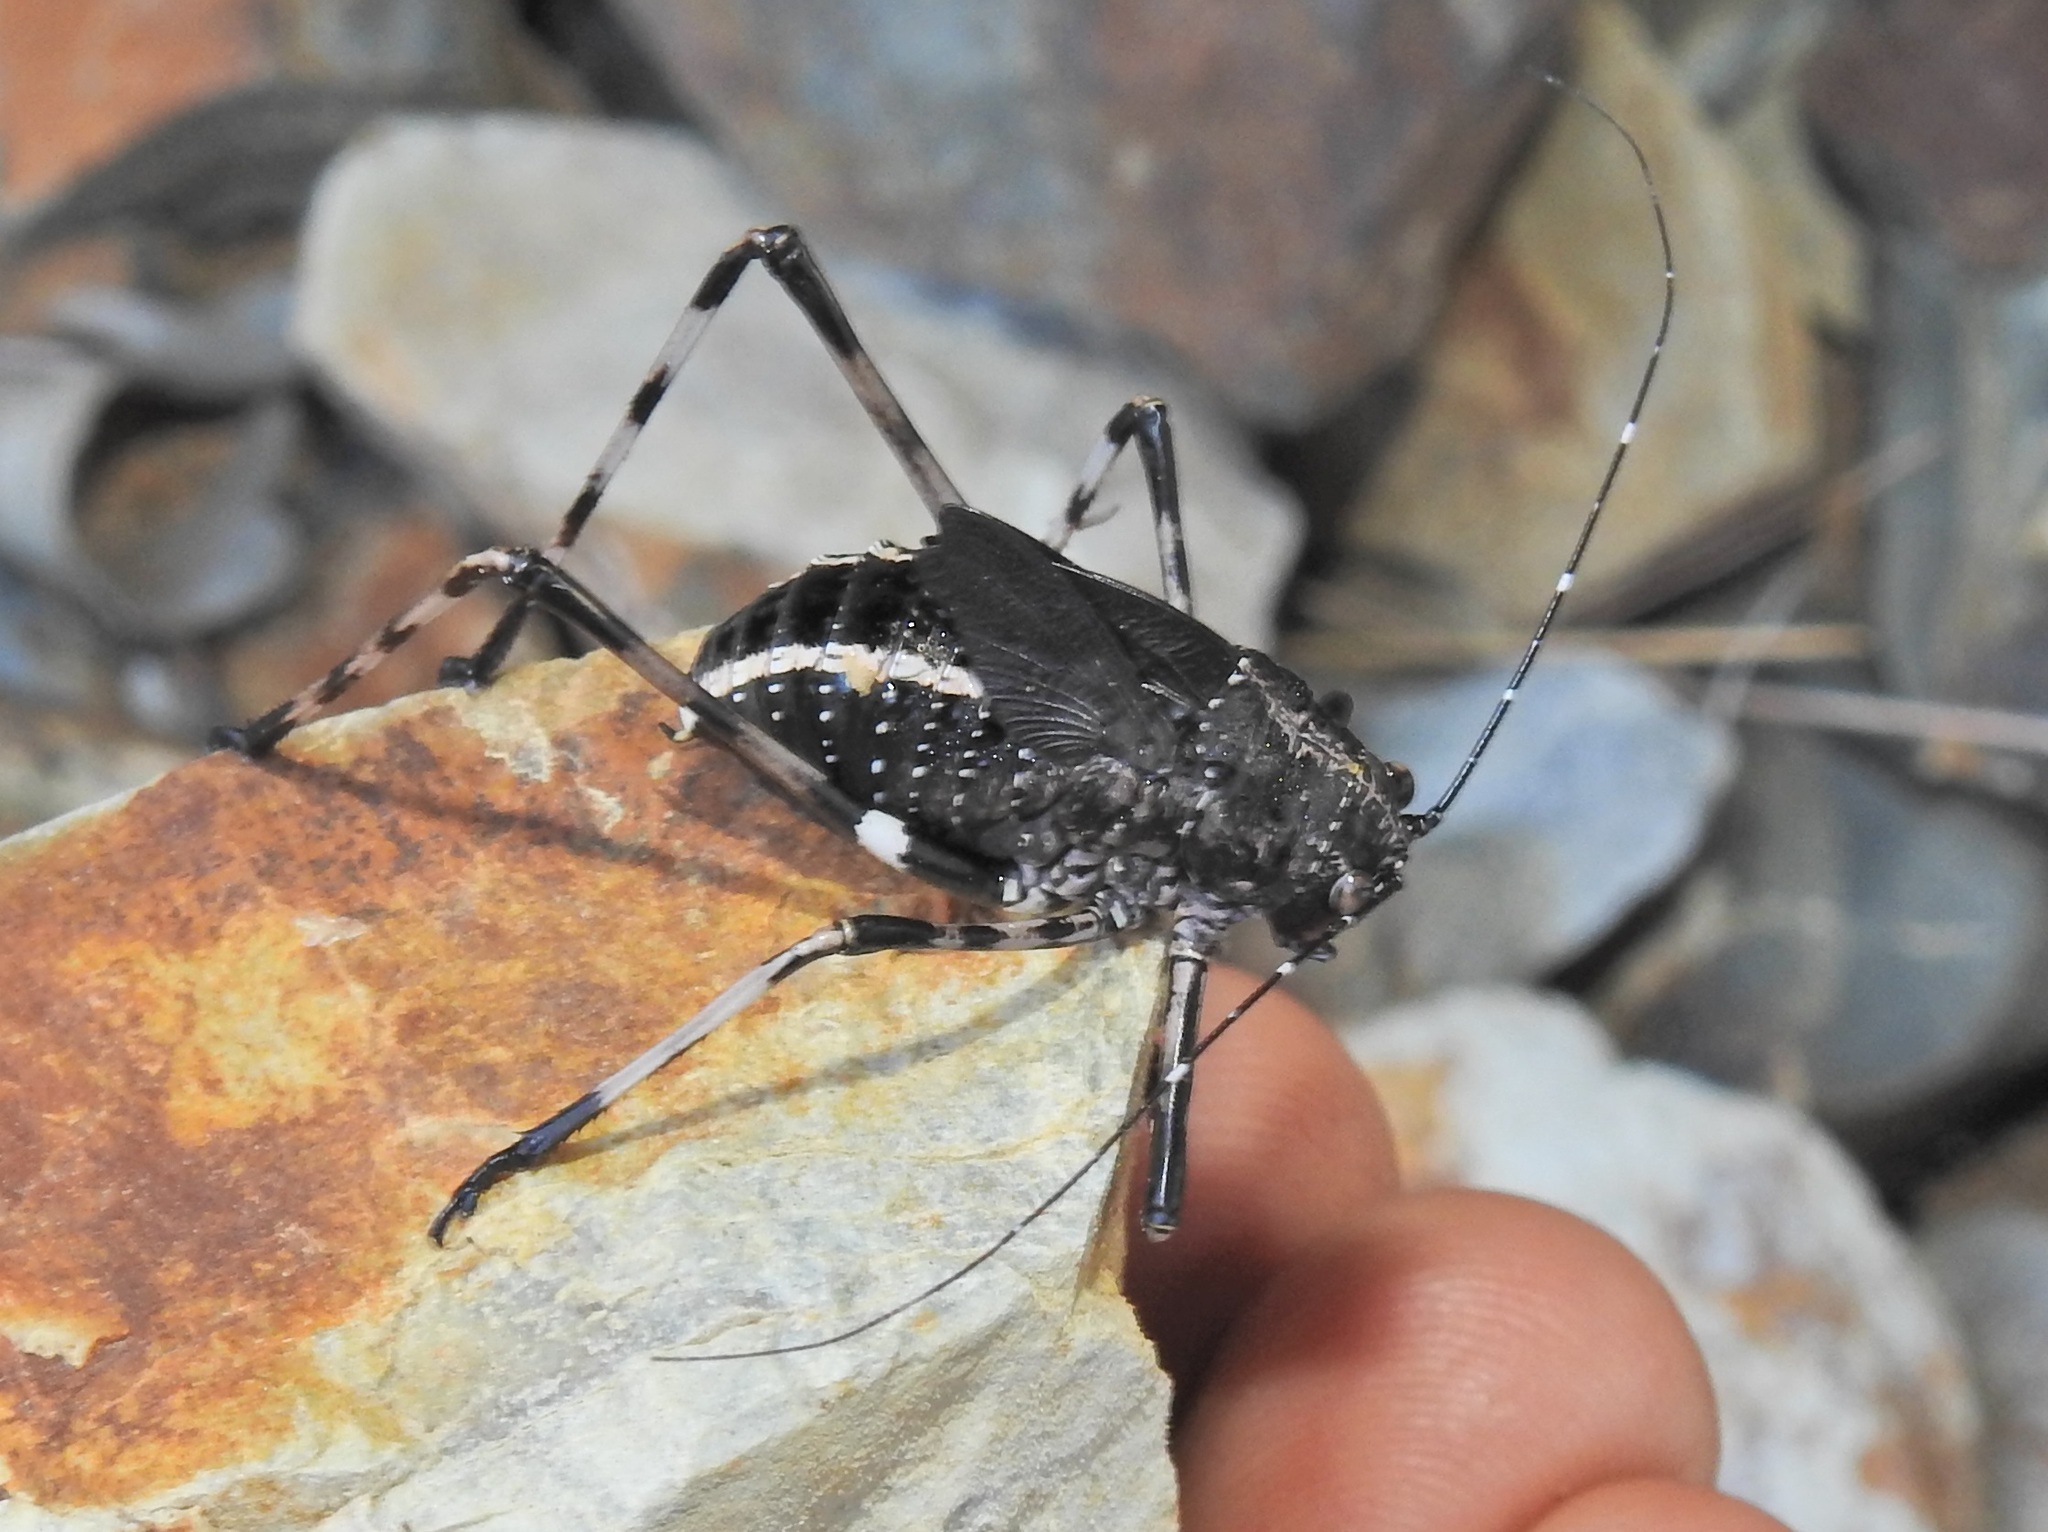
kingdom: Animalia
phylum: Arthropoda
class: Insecta
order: Orthoptera
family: Tettigoniidae
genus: Acripeza
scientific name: Acripeza reticulata
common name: Mountain katydid
